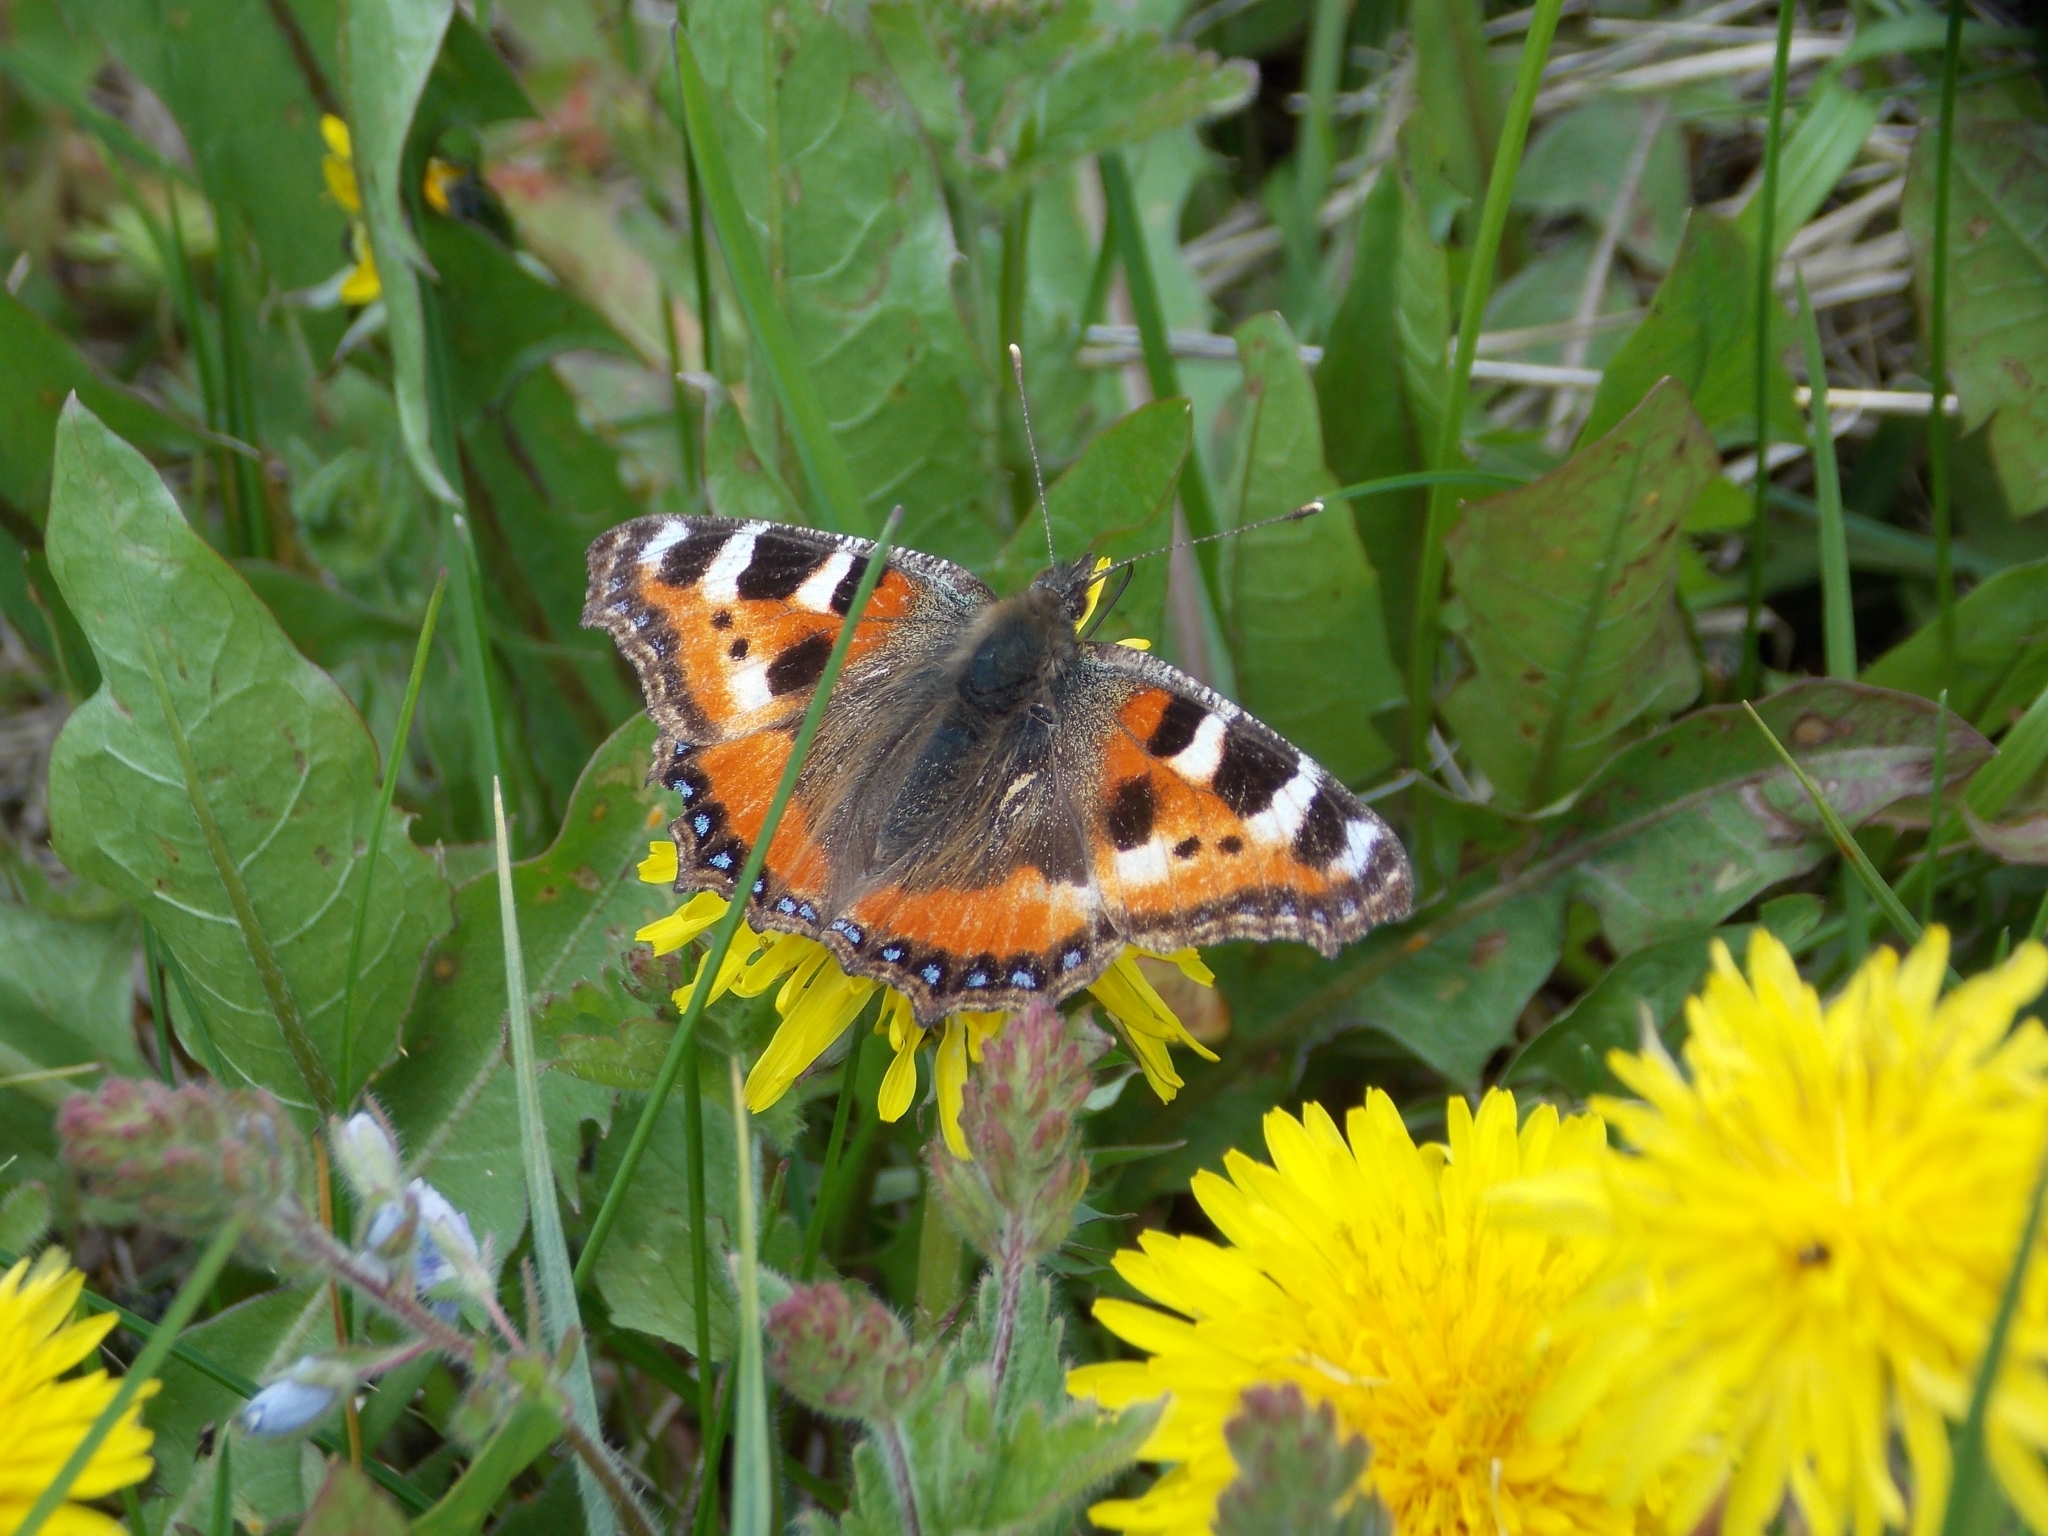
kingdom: Animalia
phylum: Arthropoda
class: Insecta
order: Lepidoptera
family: Nymphalidae
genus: Aglais
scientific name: Aglais urticae
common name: Small tortoiseshell
